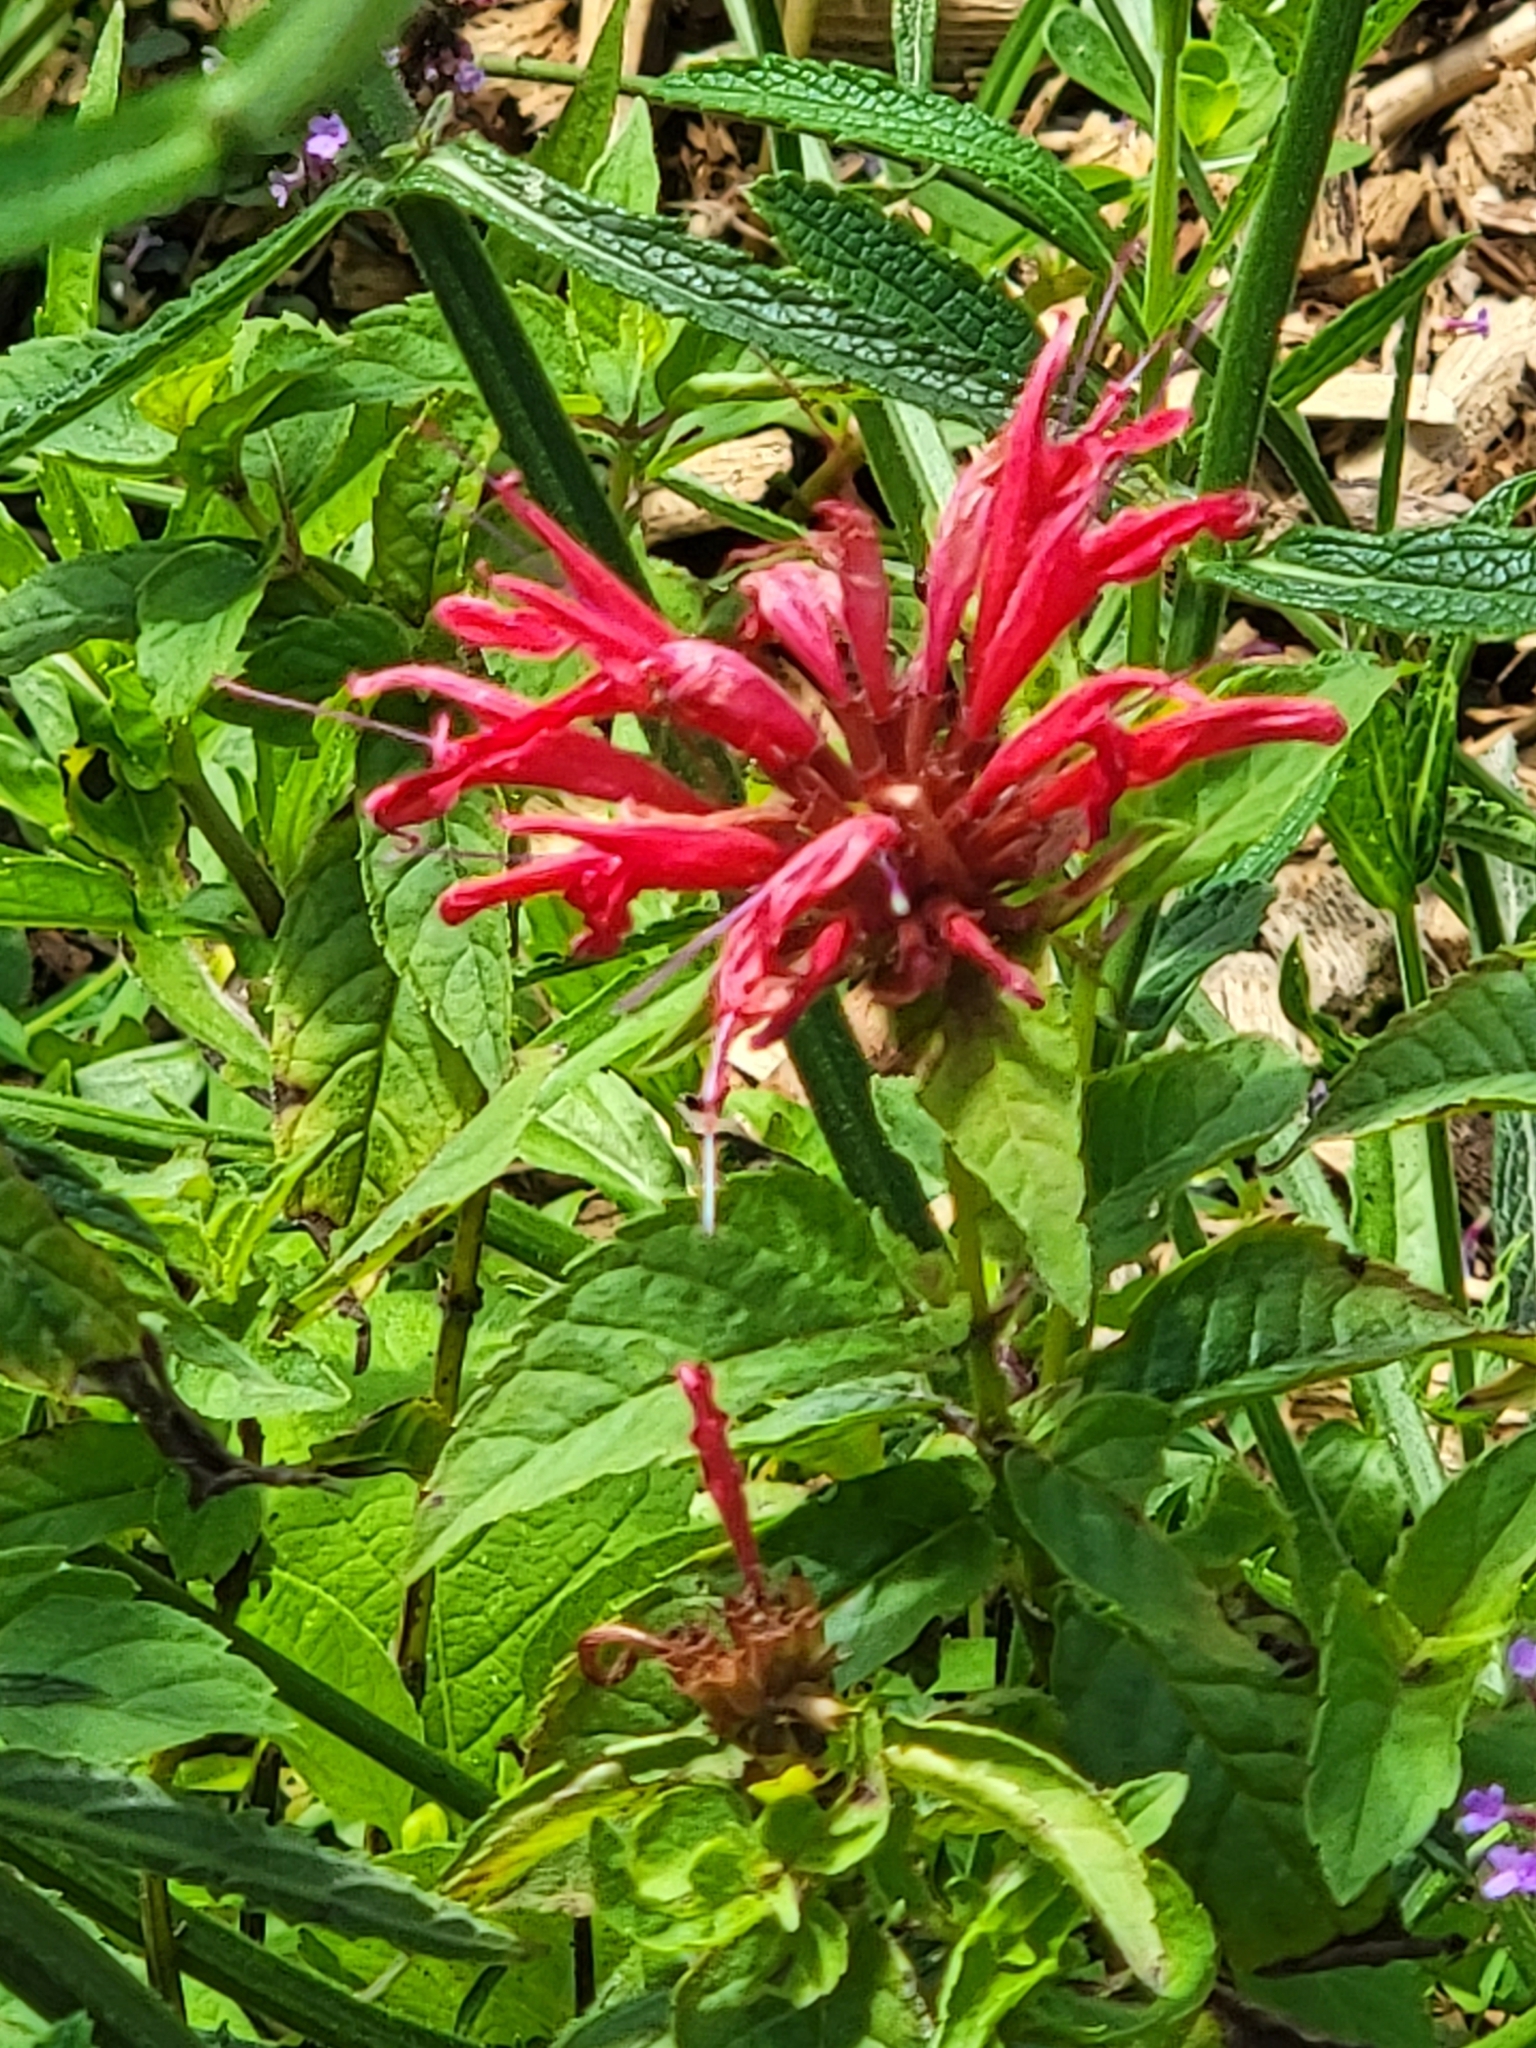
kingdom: Plantae
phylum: Tracheophyta
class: Magnoliopsida
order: Lamiales
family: Lamiaceae
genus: Monarda
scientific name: Monarda didyma
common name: Beebalm
